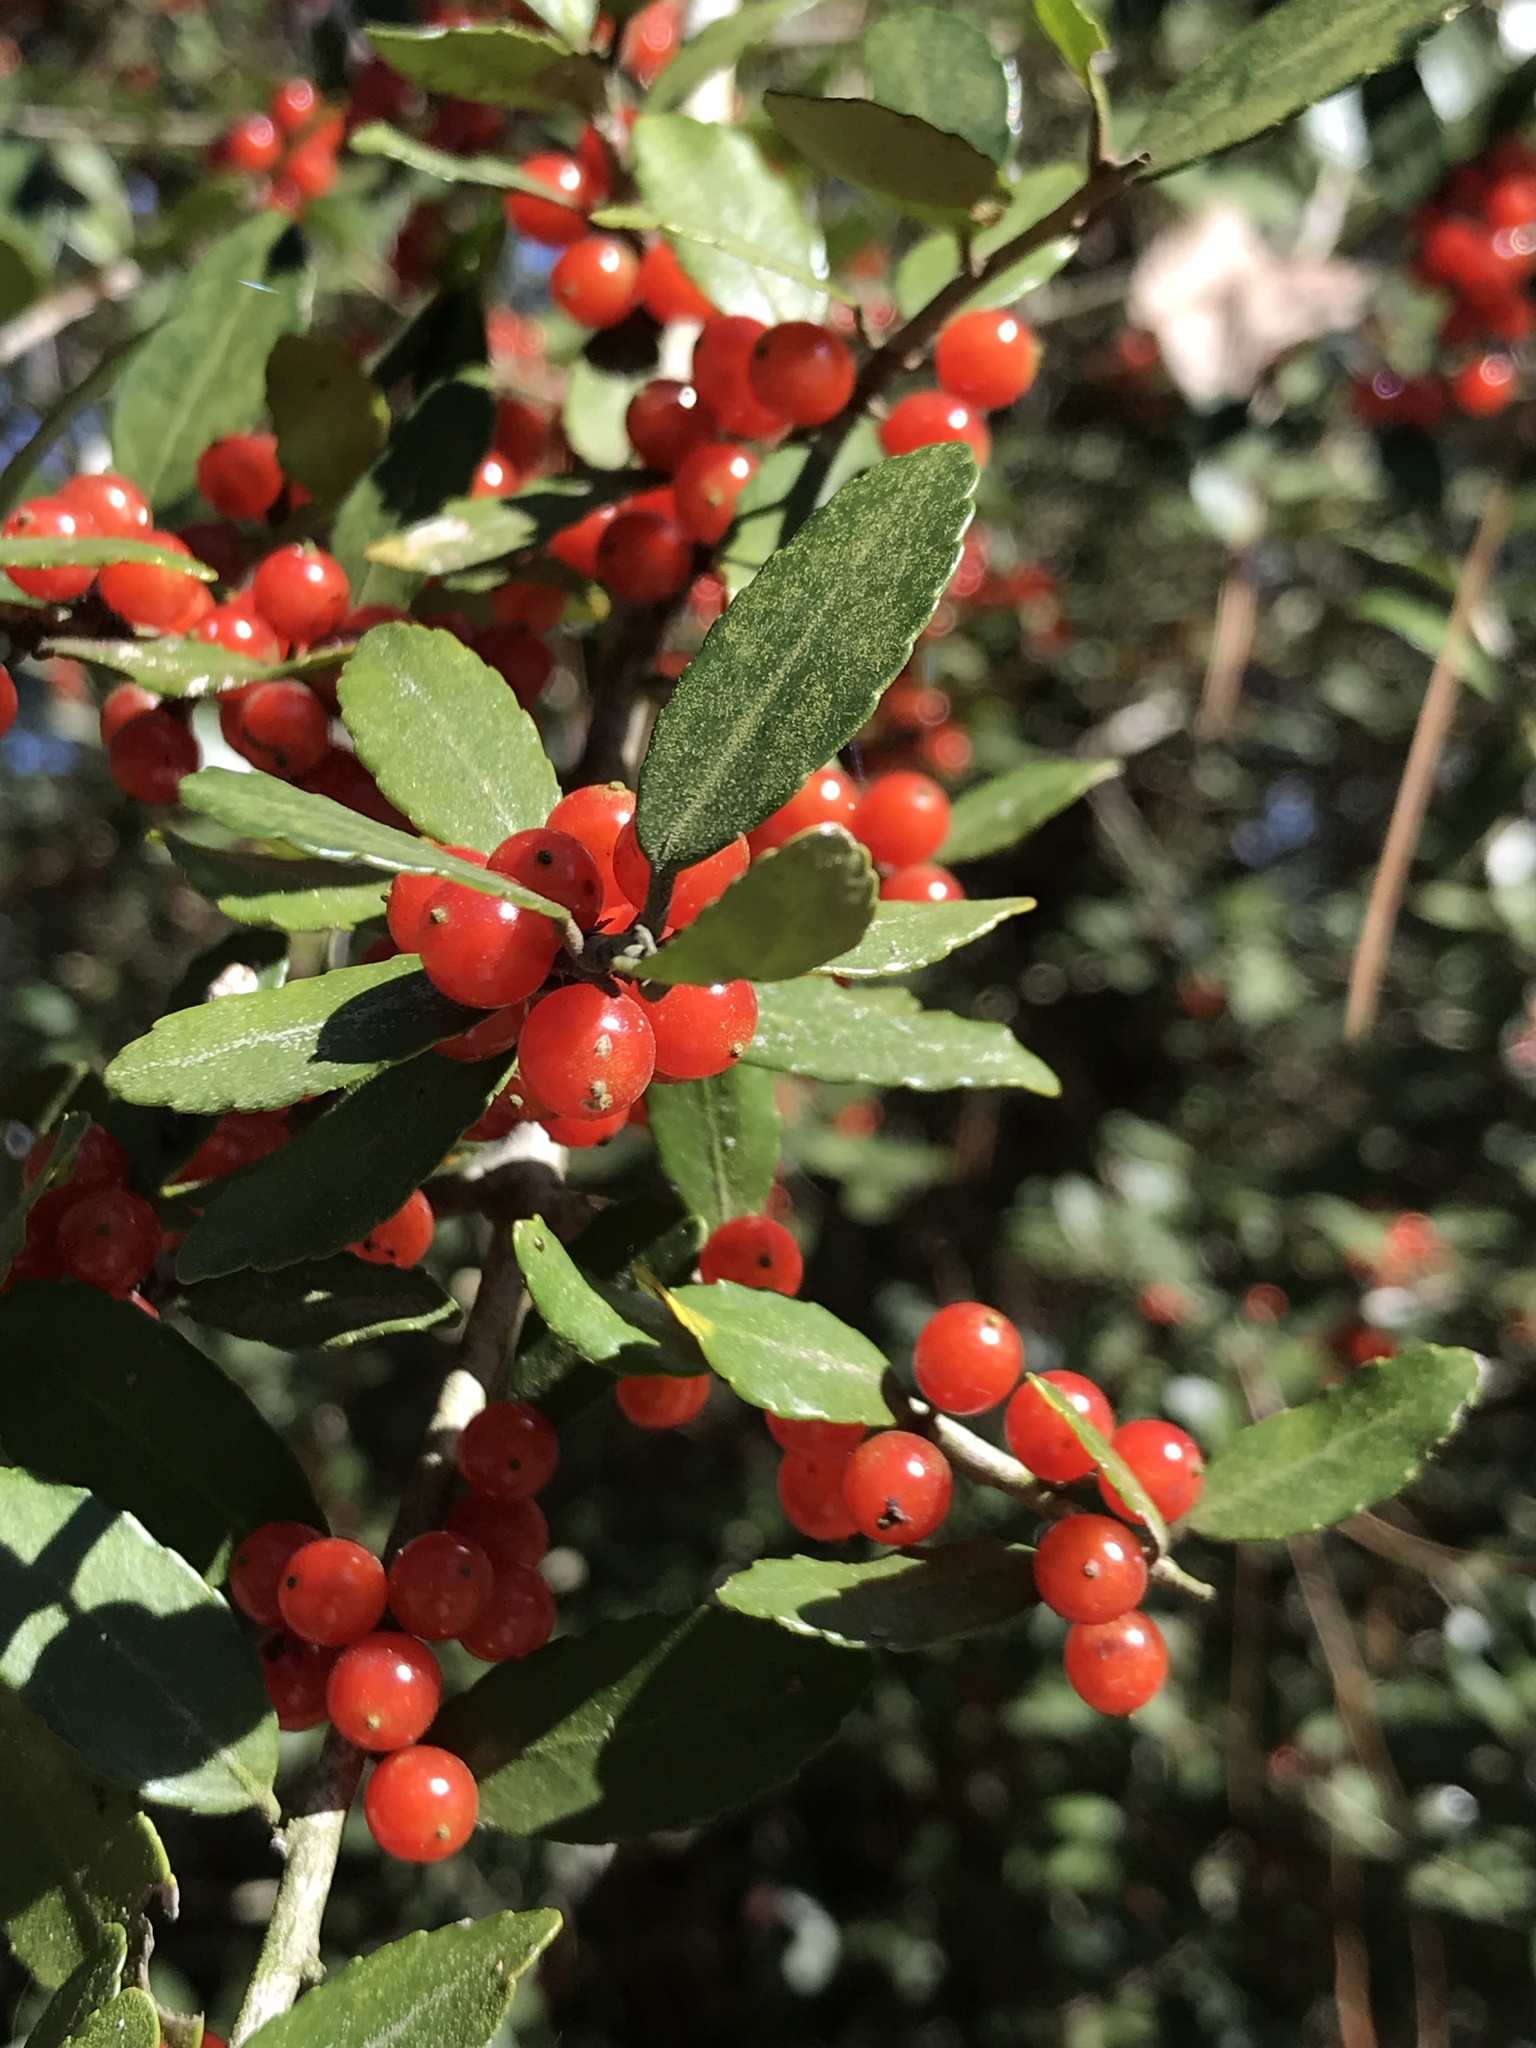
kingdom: Plantae
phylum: Tracheophyta
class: Magnoliopsida
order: Aquifoliales
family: Aquifoliaceae
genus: Ilex
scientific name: Ilex vomitoria
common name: Yaupon holly
